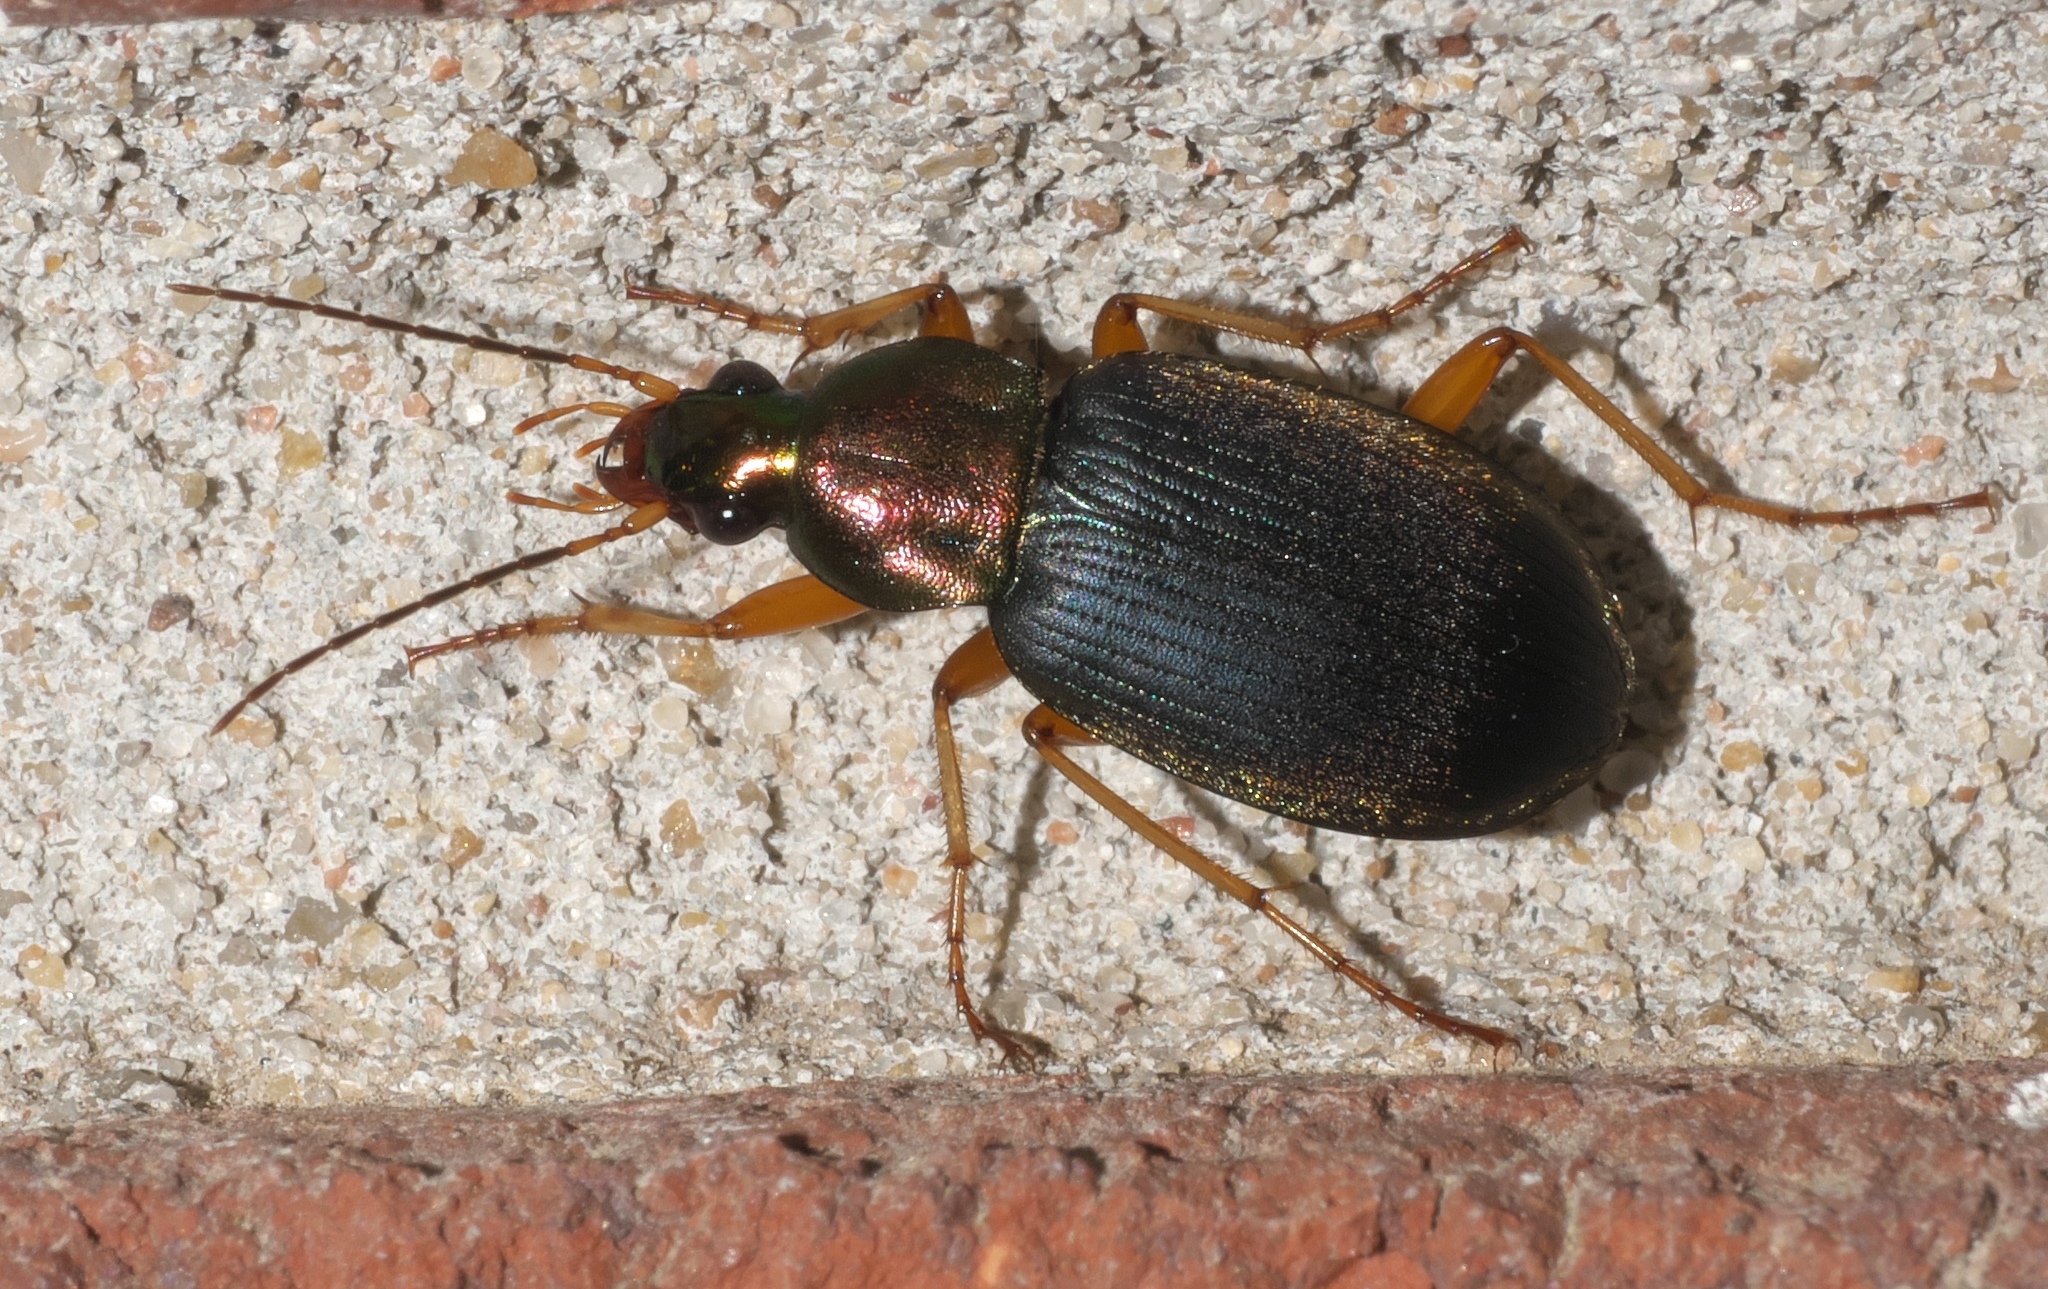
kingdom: Animalia
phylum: Arthropoda
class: Insecta
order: Coleoptera
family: Carabidae
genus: Chlaenius
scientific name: Chlaenius tricolor
